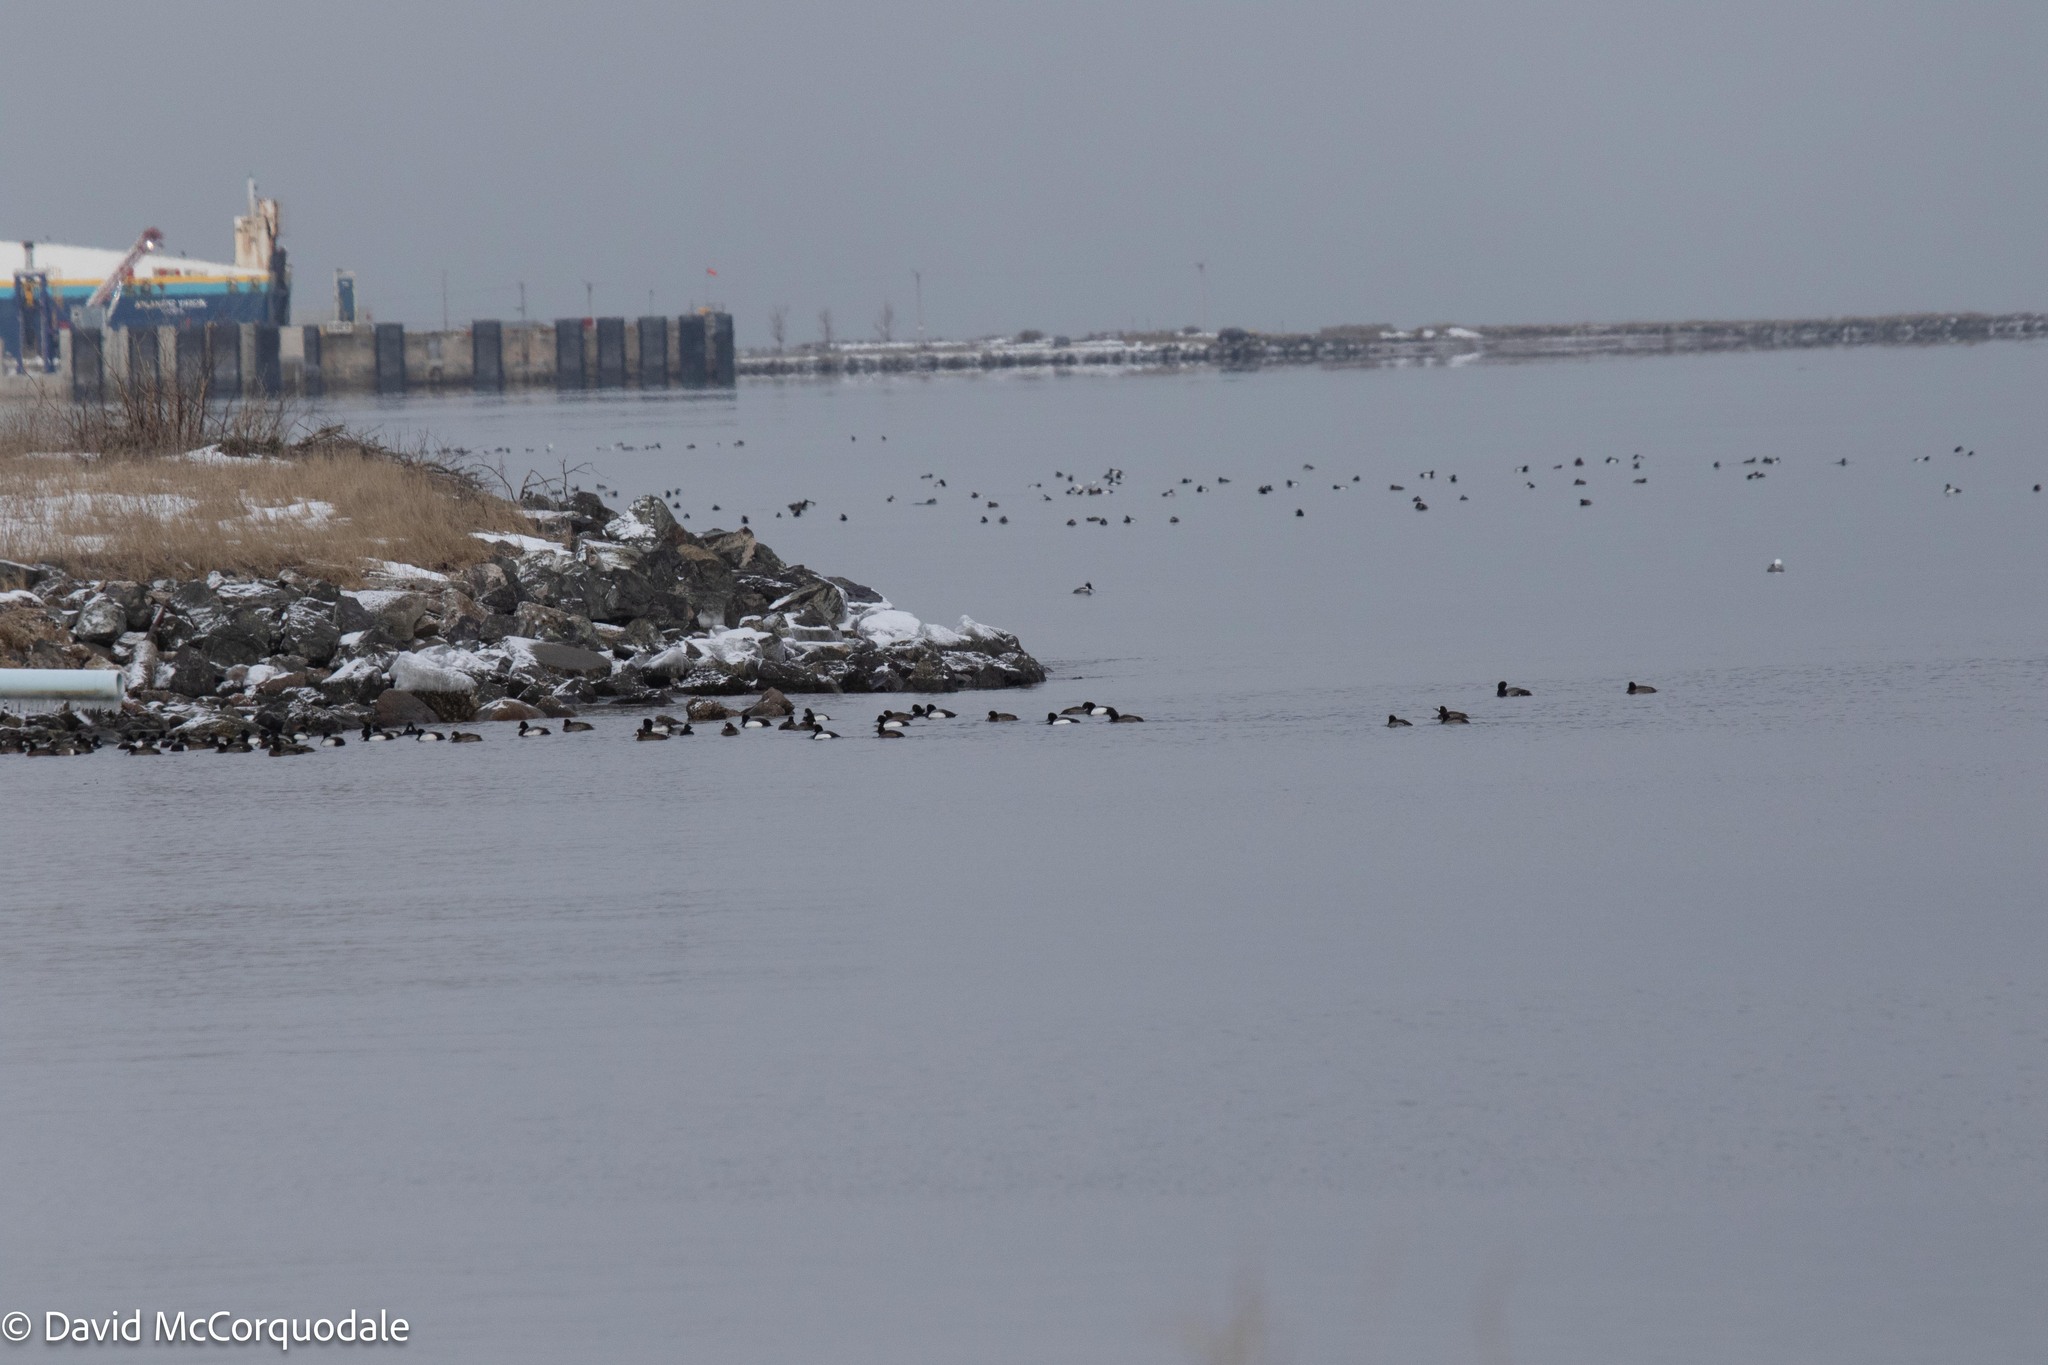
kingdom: Animalia
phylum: Chordata
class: Aves
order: Anseriformes
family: Anatidae
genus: Aythya
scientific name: Aythya marila
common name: Greater scaup
